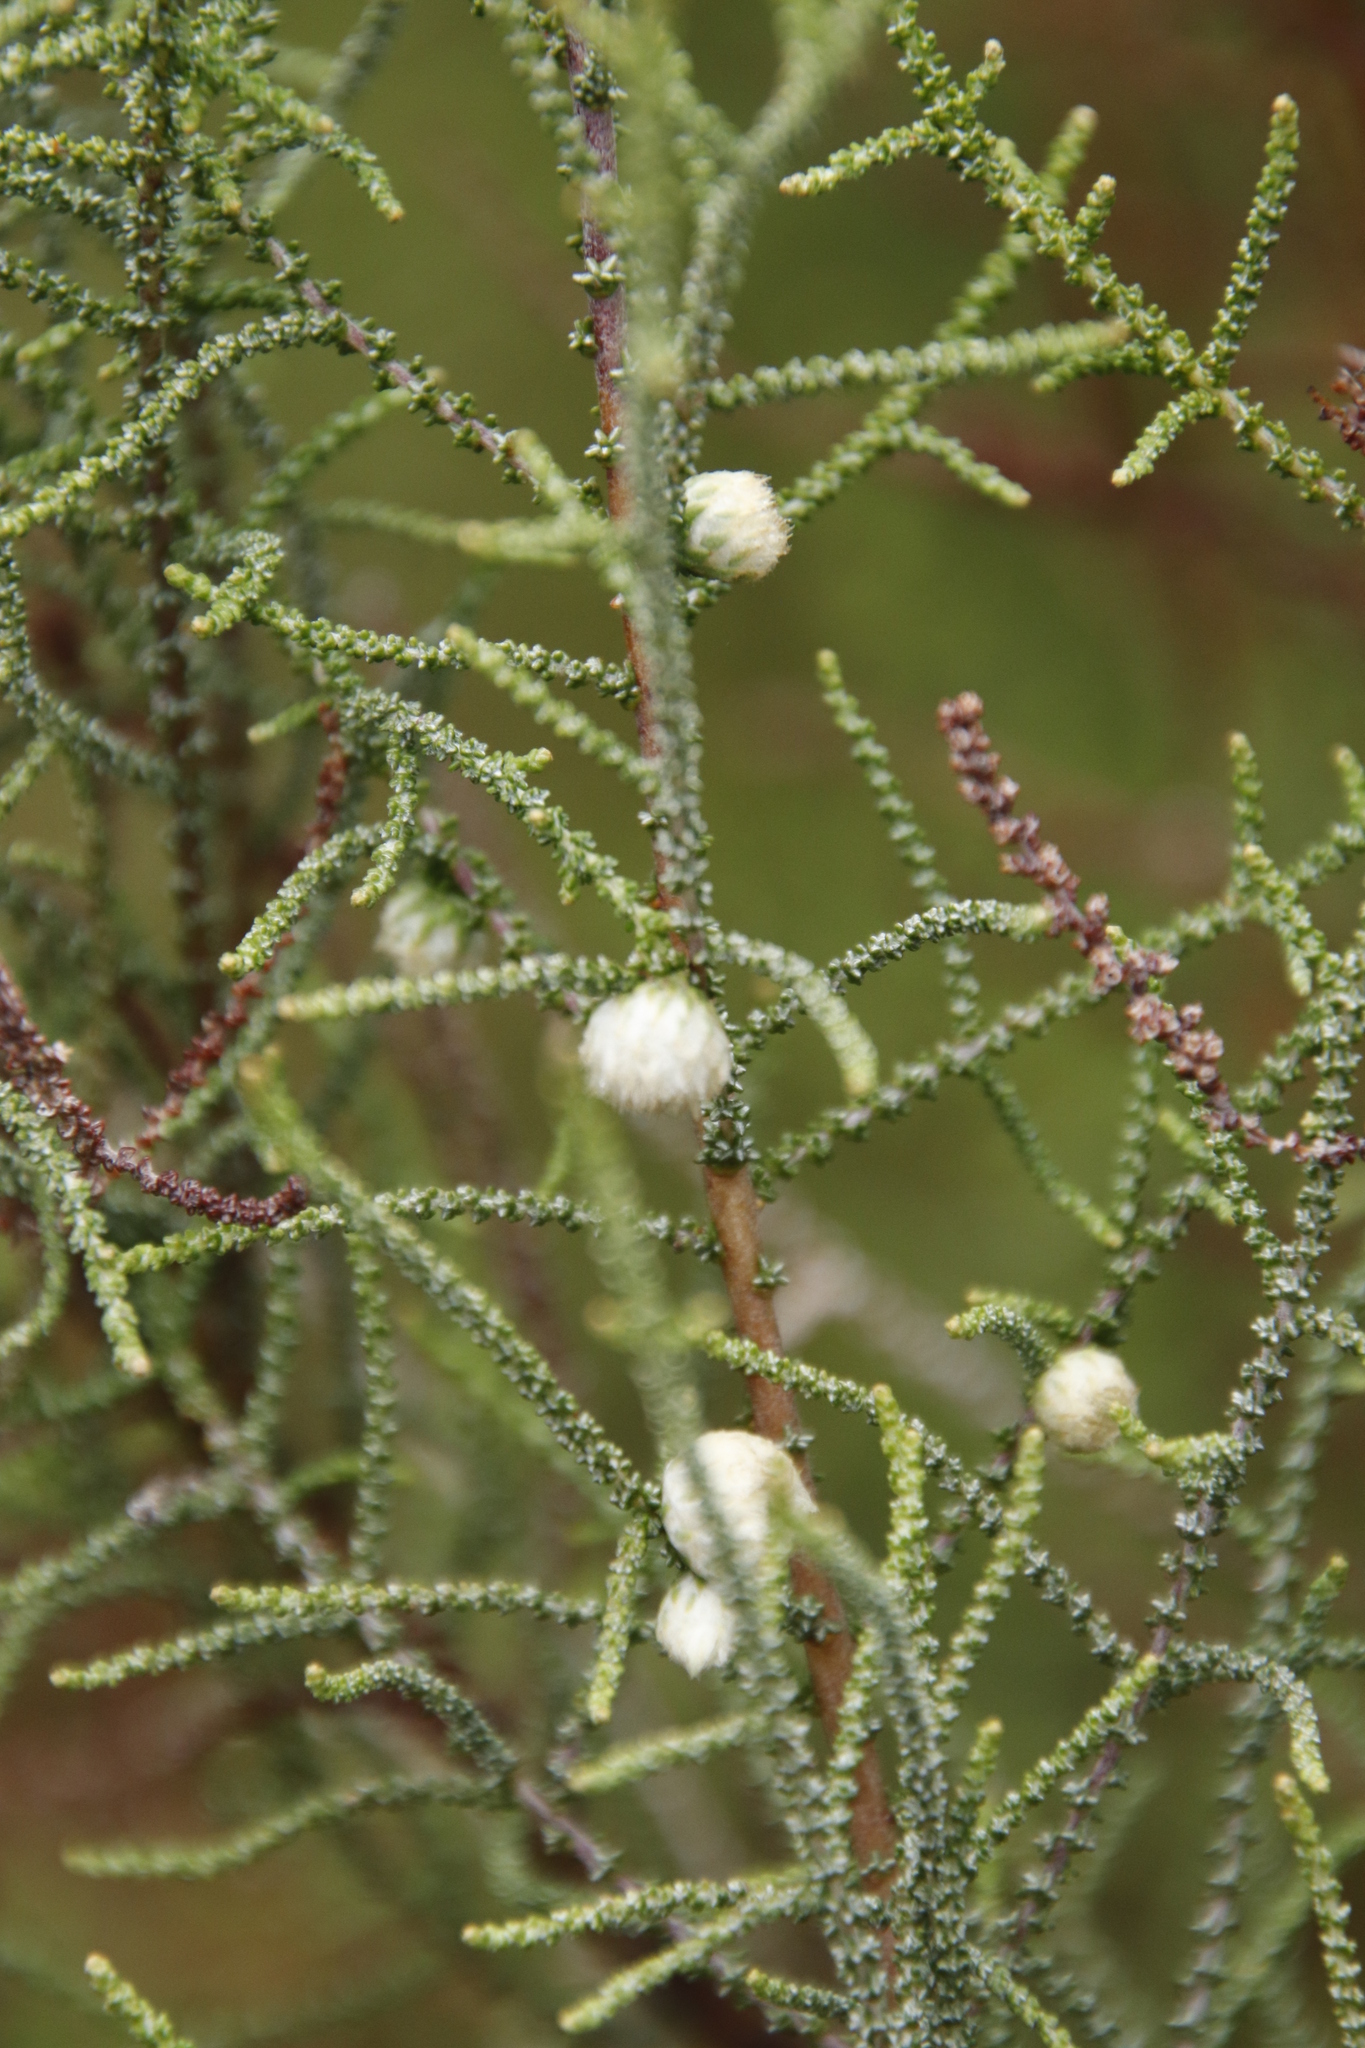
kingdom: Plantae
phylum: Tracheophyta
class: Magnoliopsida
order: Asterales
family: Asteraceae
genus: Seriphium
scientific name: Seriphium
